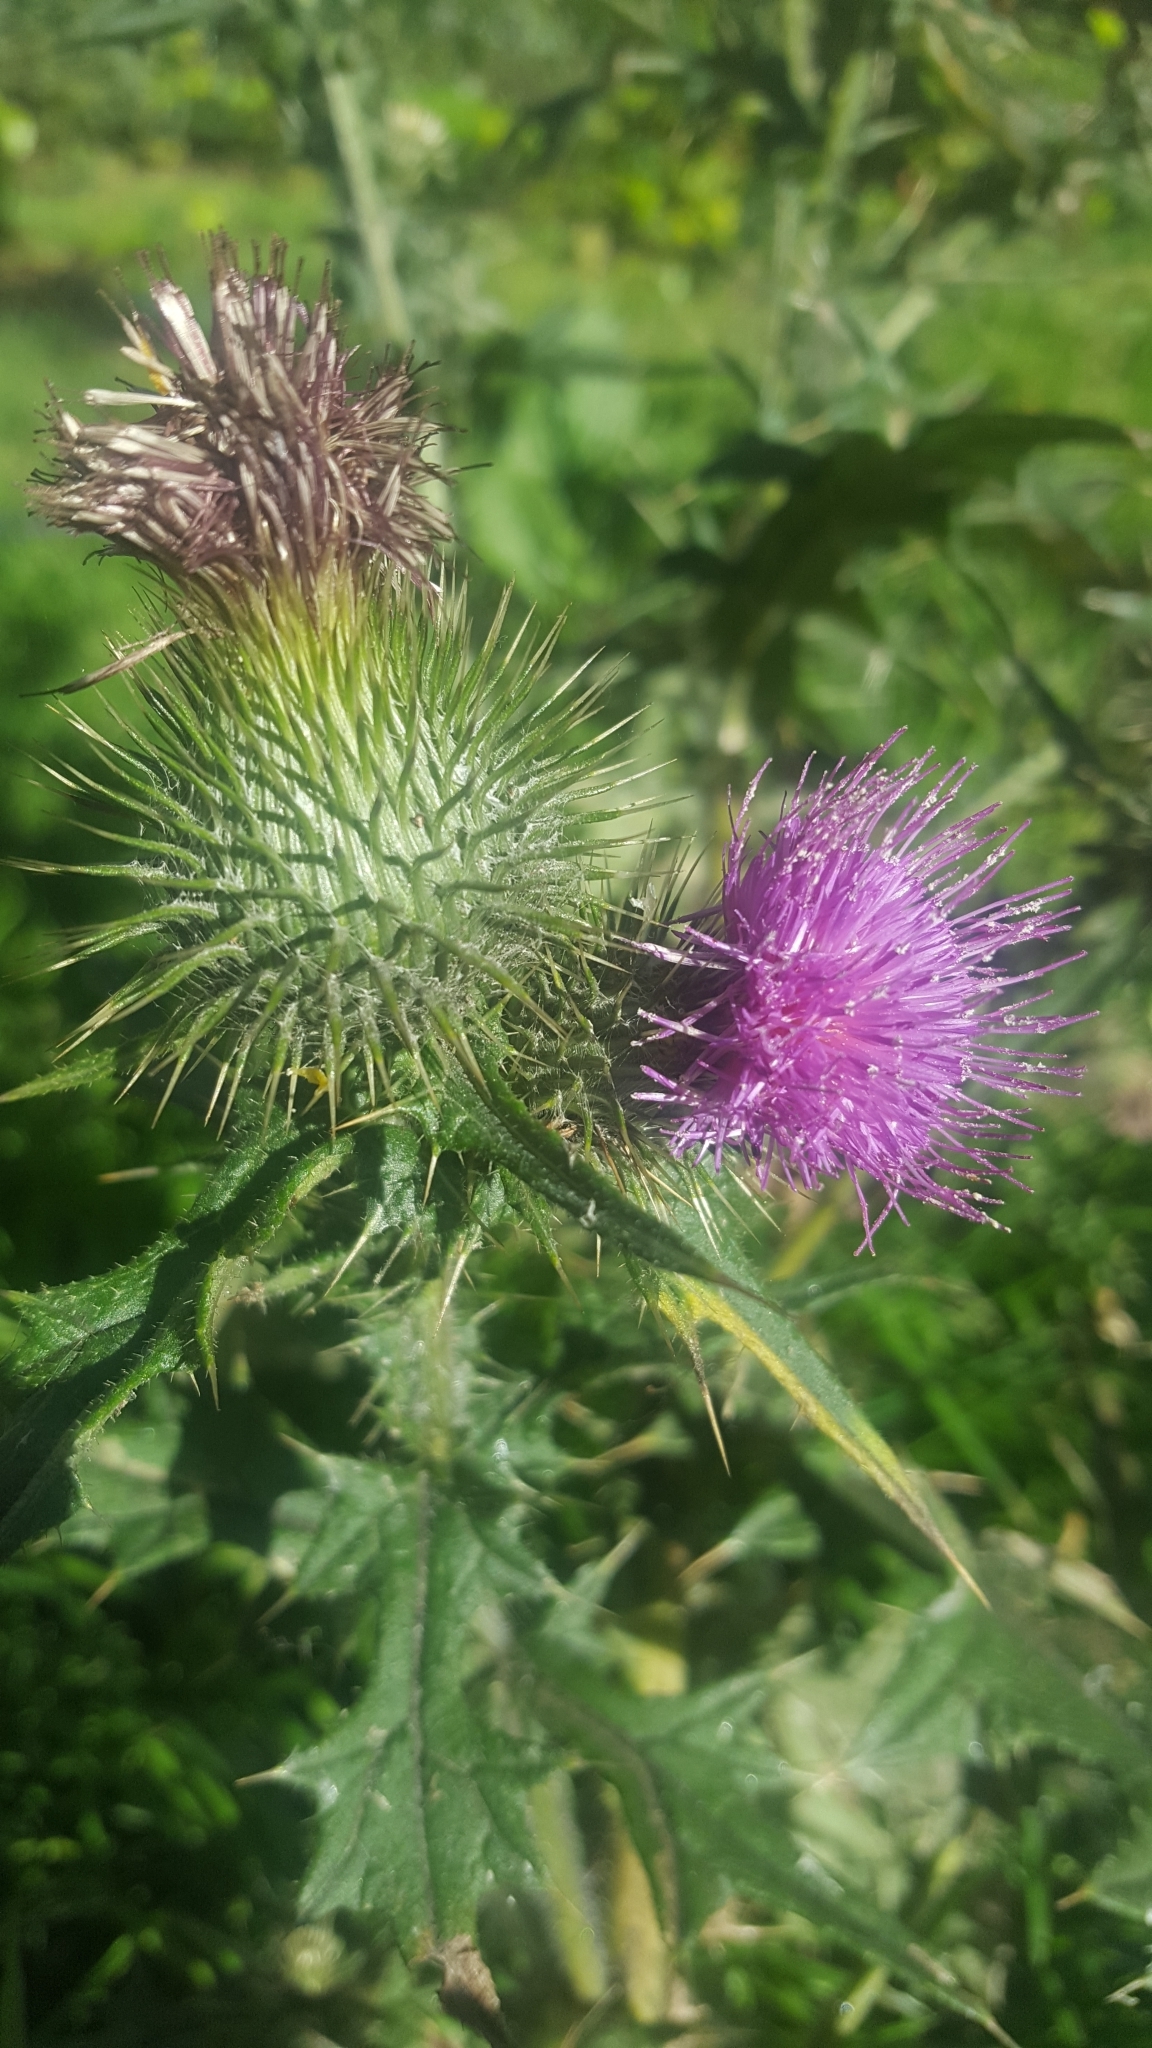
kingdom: Plantae
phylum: Tracheophyta
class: Magnoliopsida
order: Asterales
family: Asteraceae
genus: Cirsium
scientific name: Cirsium vulgare
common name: Bull thistle
